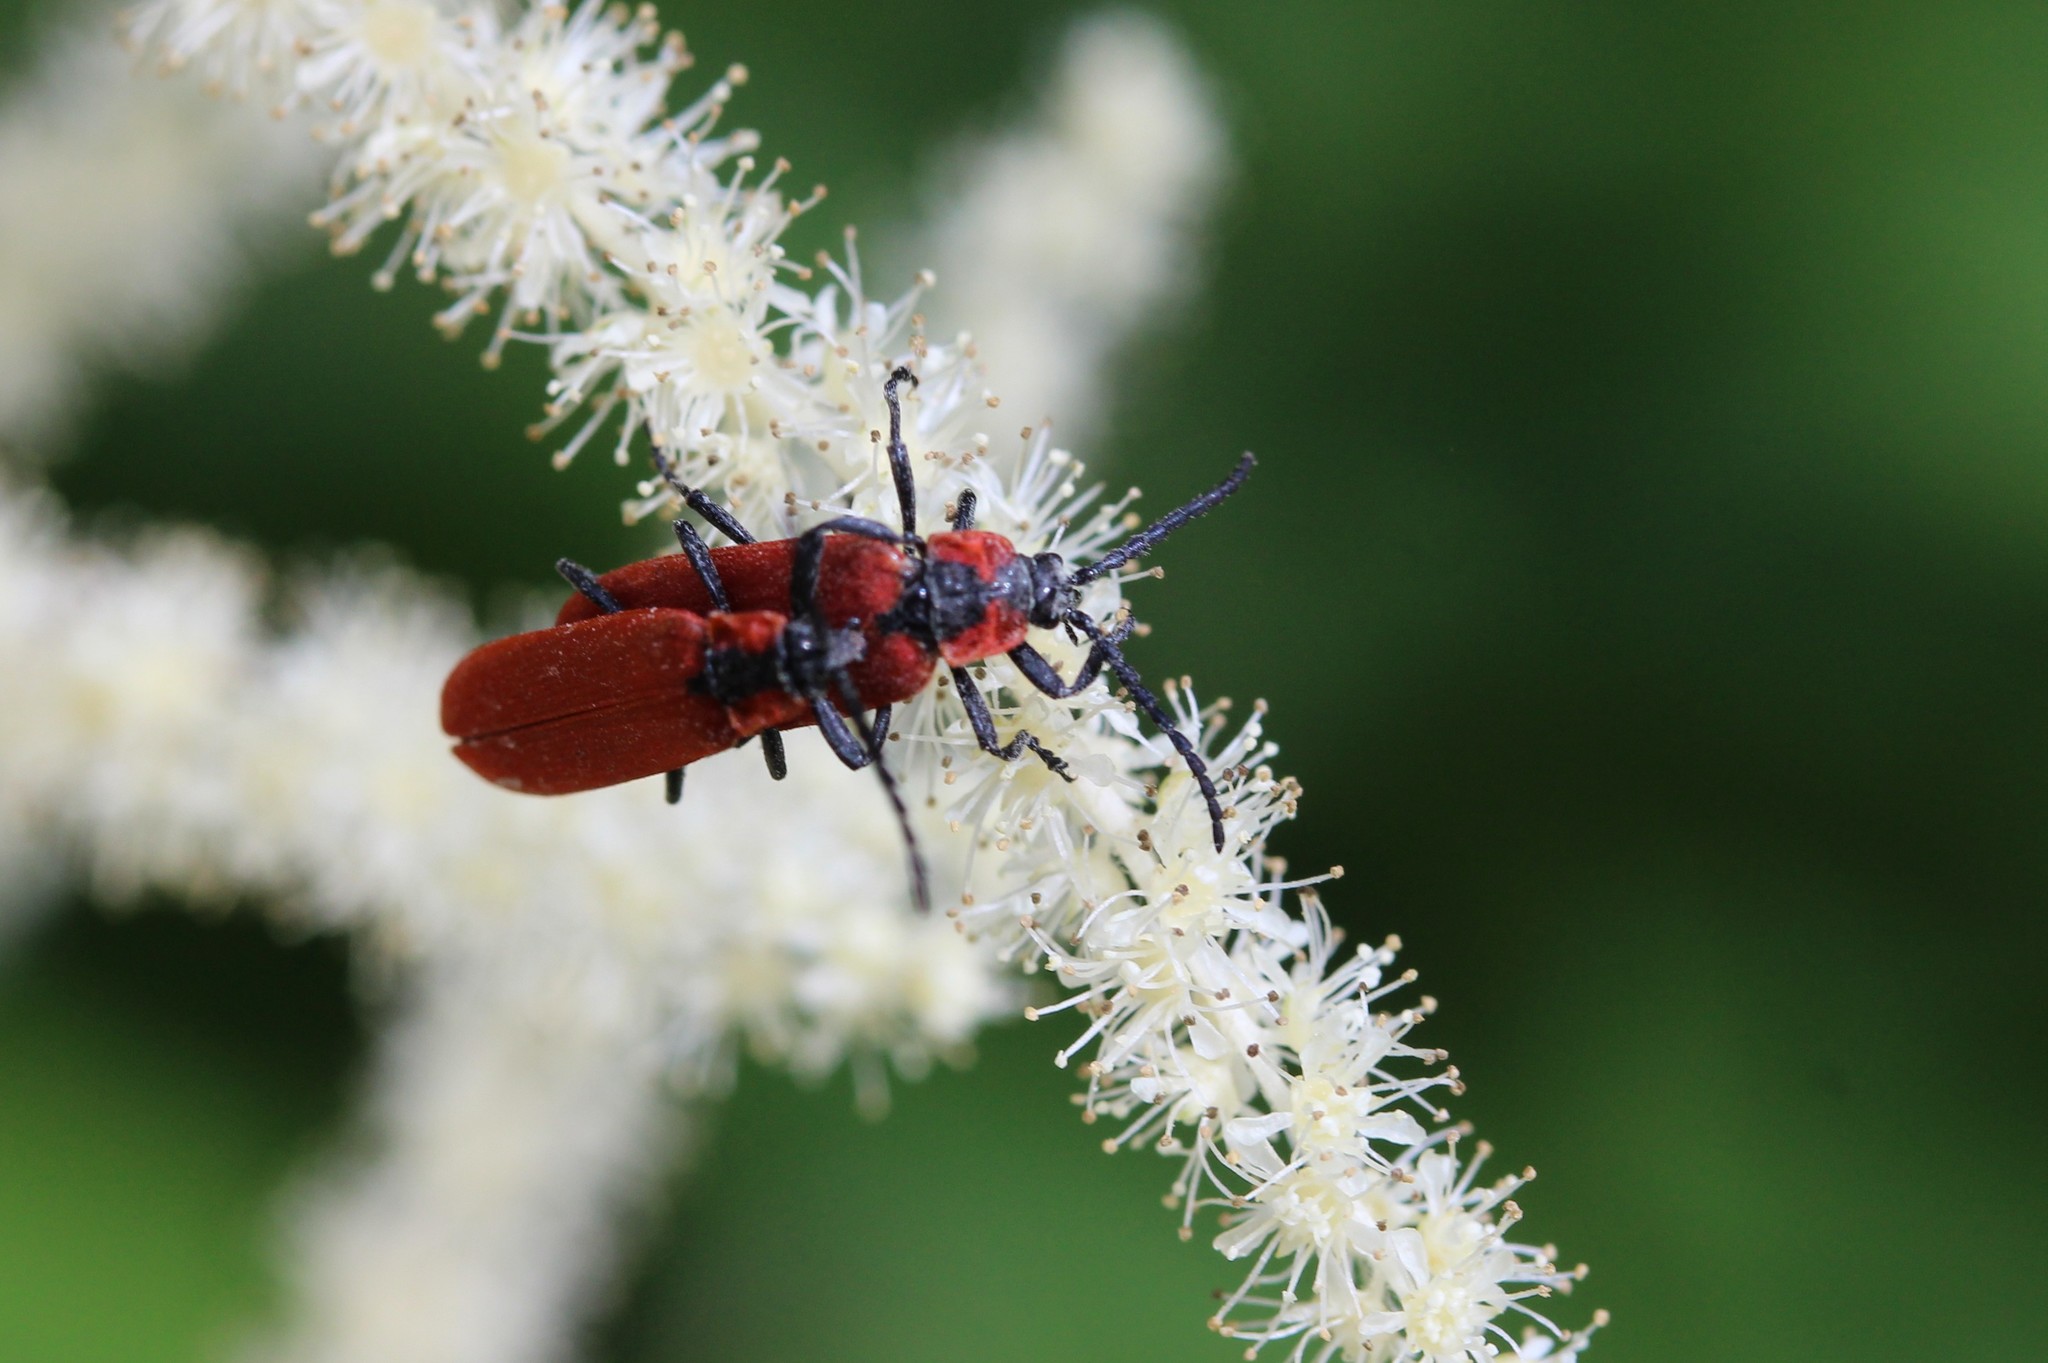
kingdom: Animalia
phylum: Arthropoda
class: Insecta
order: Coleoptera
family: Lycidae
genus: Lygistopterus
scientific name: Lygistopterus sanguineus
